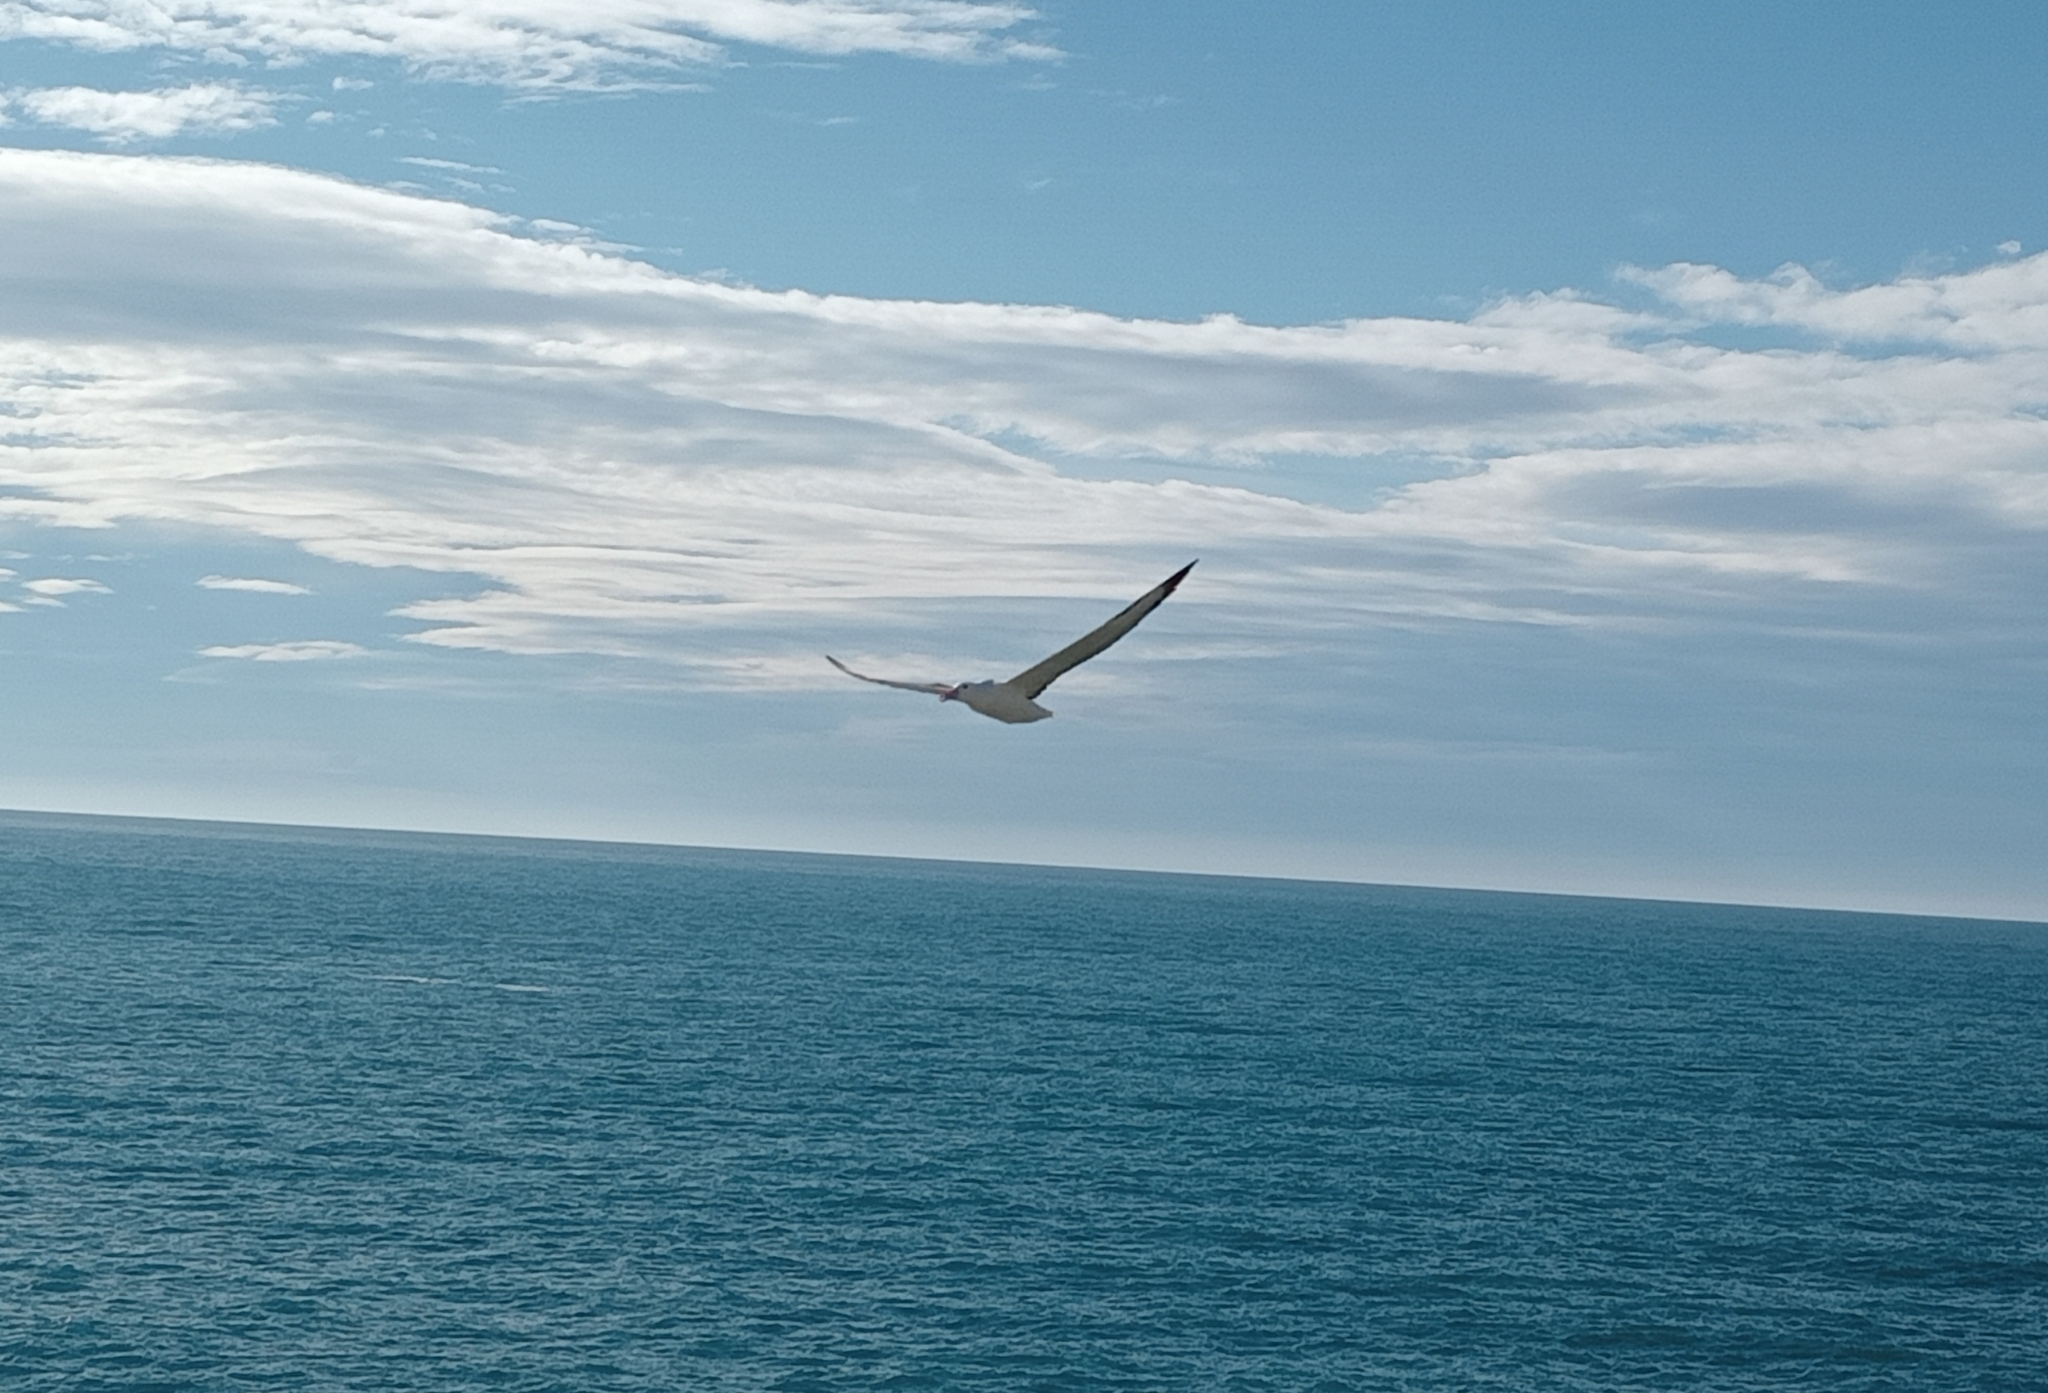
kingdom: Animalia
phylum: Chordata
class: Aves
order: Procellariiformes
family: Diomedeidae
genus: Diomedea
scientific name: Diomedea sanfordi
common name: Northern royal albatross
